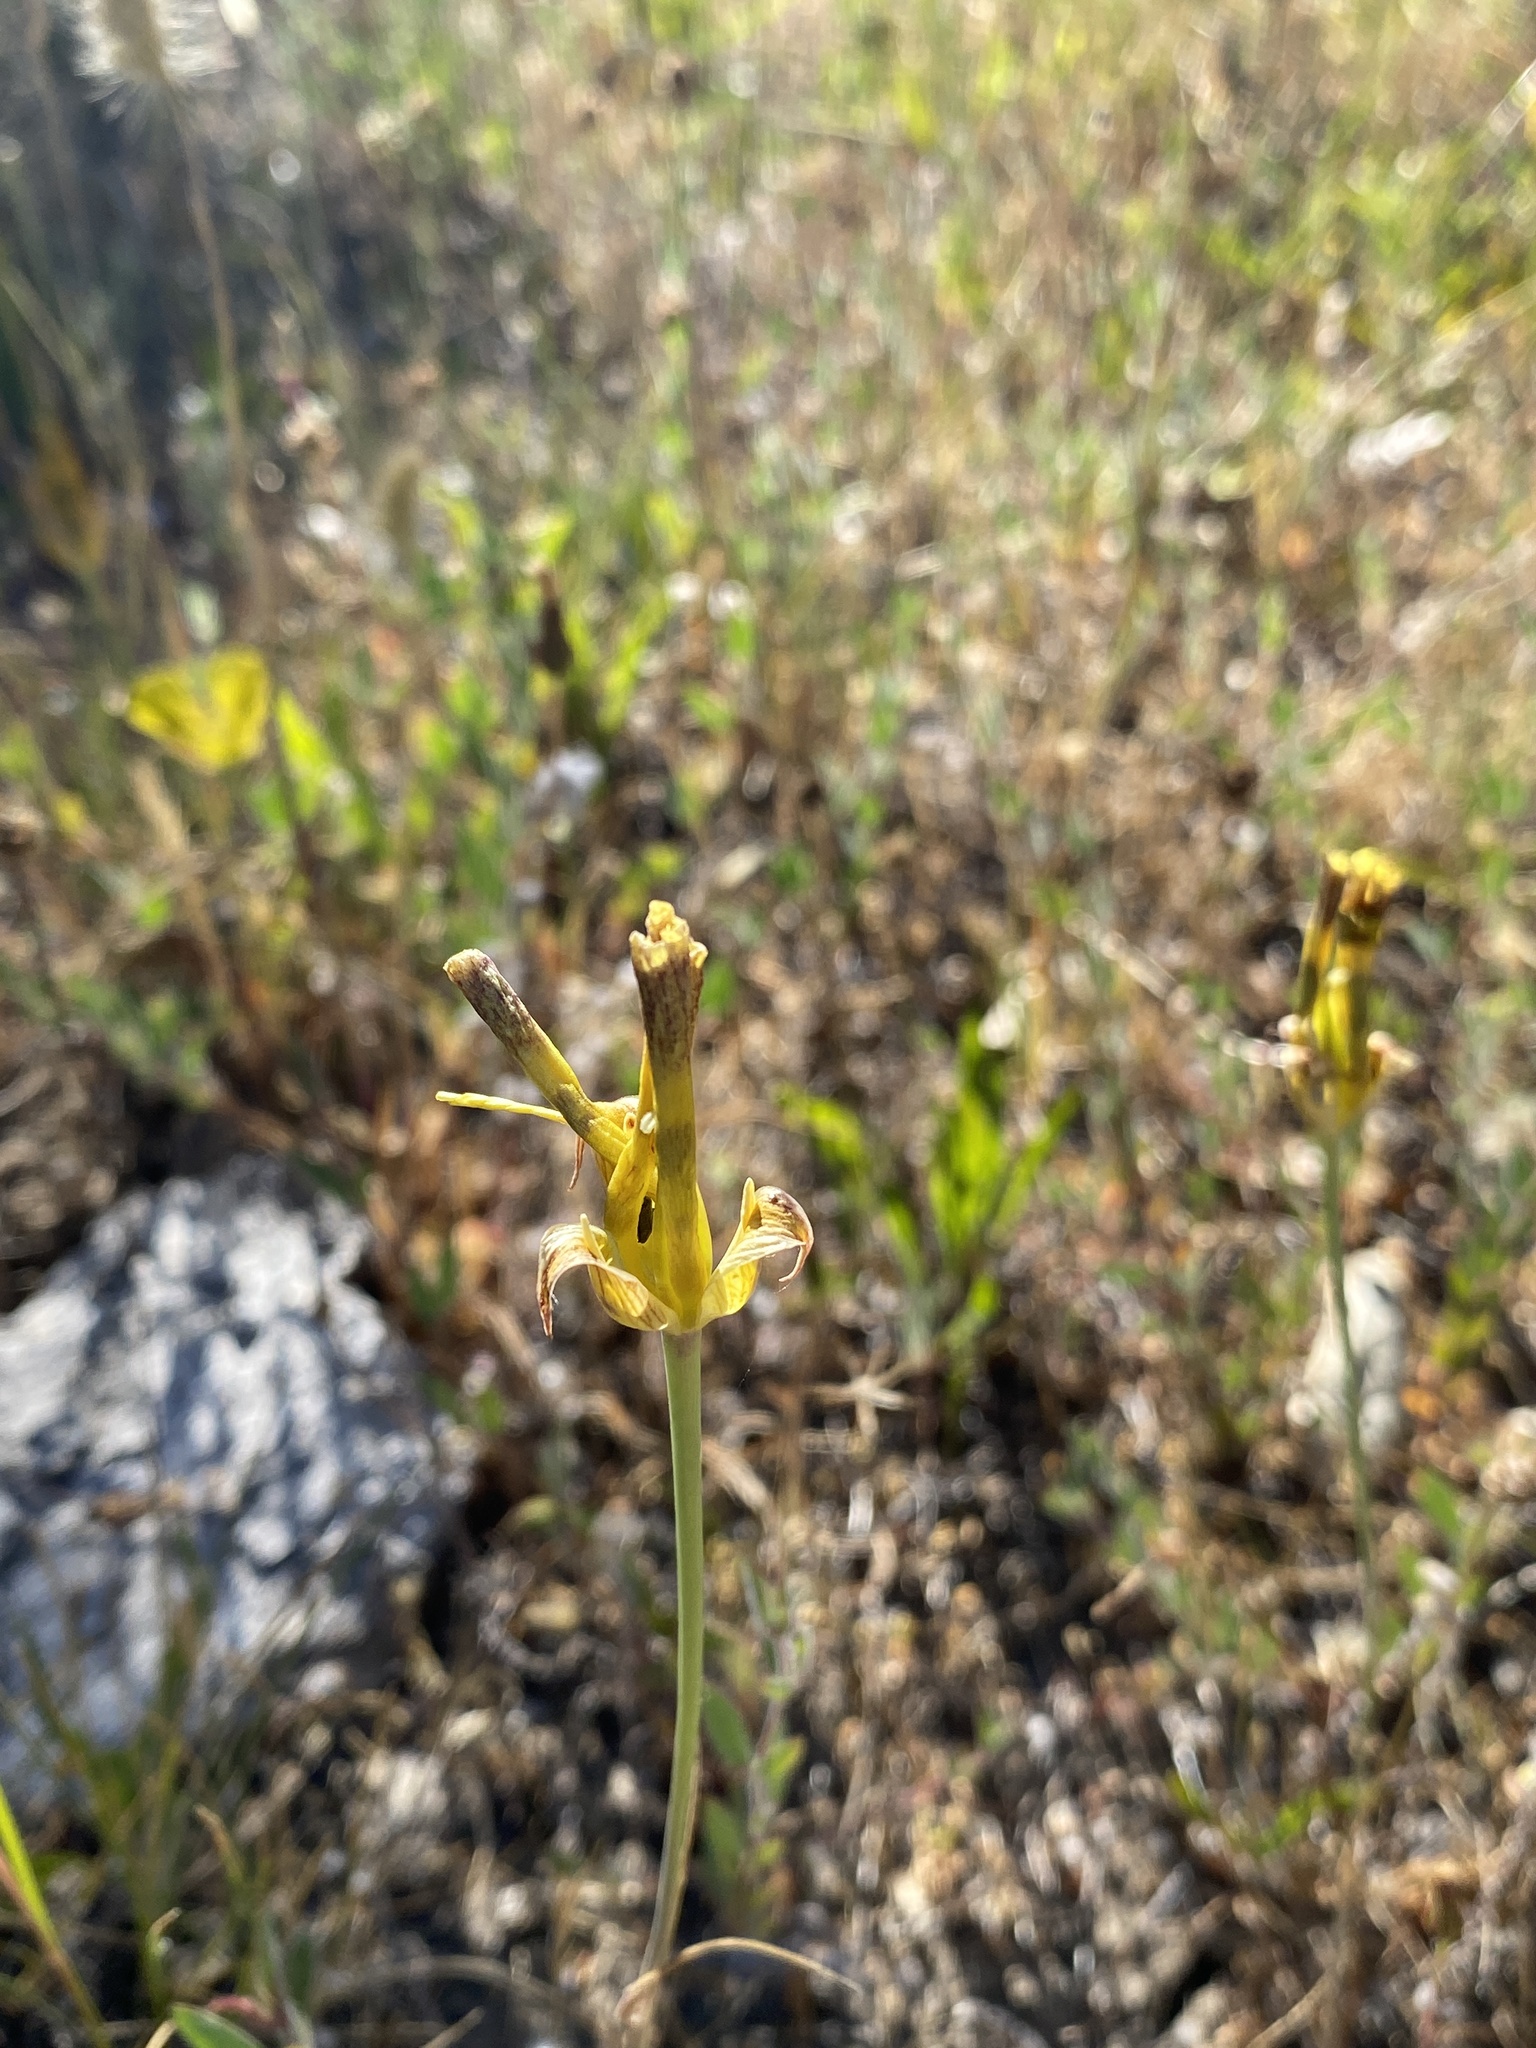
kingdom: Plantae
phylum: Tracheophyta
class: Liliopsida
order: Liliales
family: Liliaceae
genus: Calochortus
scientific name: Calochortus luteus
